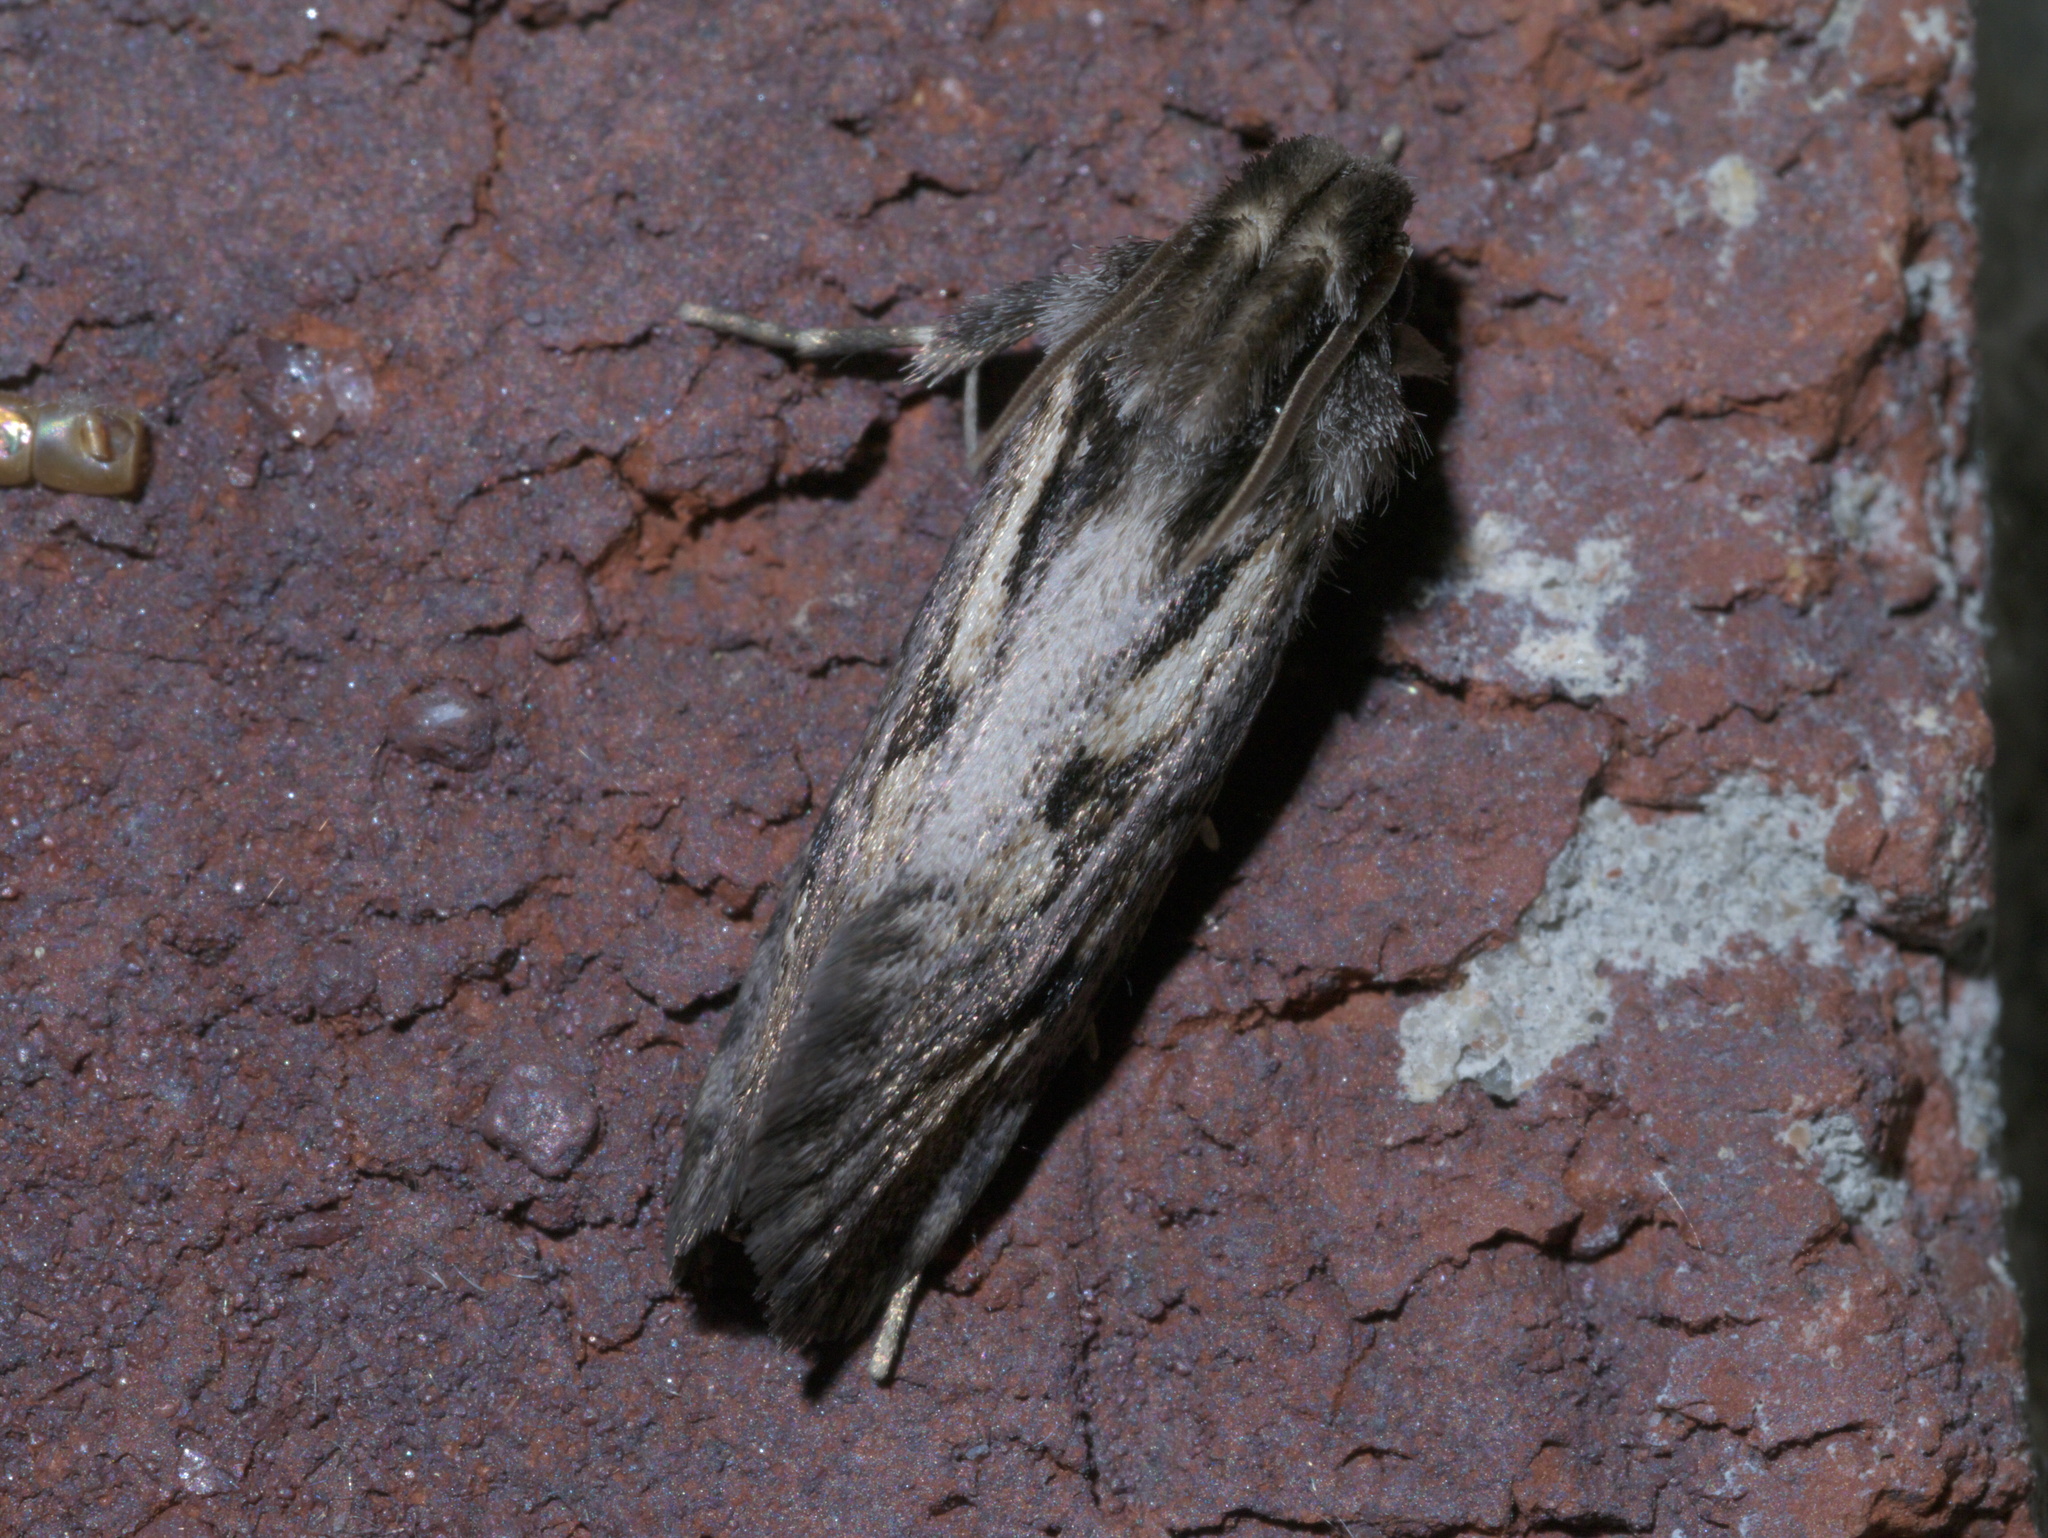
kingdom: Animalia
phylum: Arthropoda
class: Insecta
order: Lepidoptera
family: Tineidae
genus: Acrolophus
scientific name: Acrolophus popeanella
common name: Clemens' grass tubeworm moth
